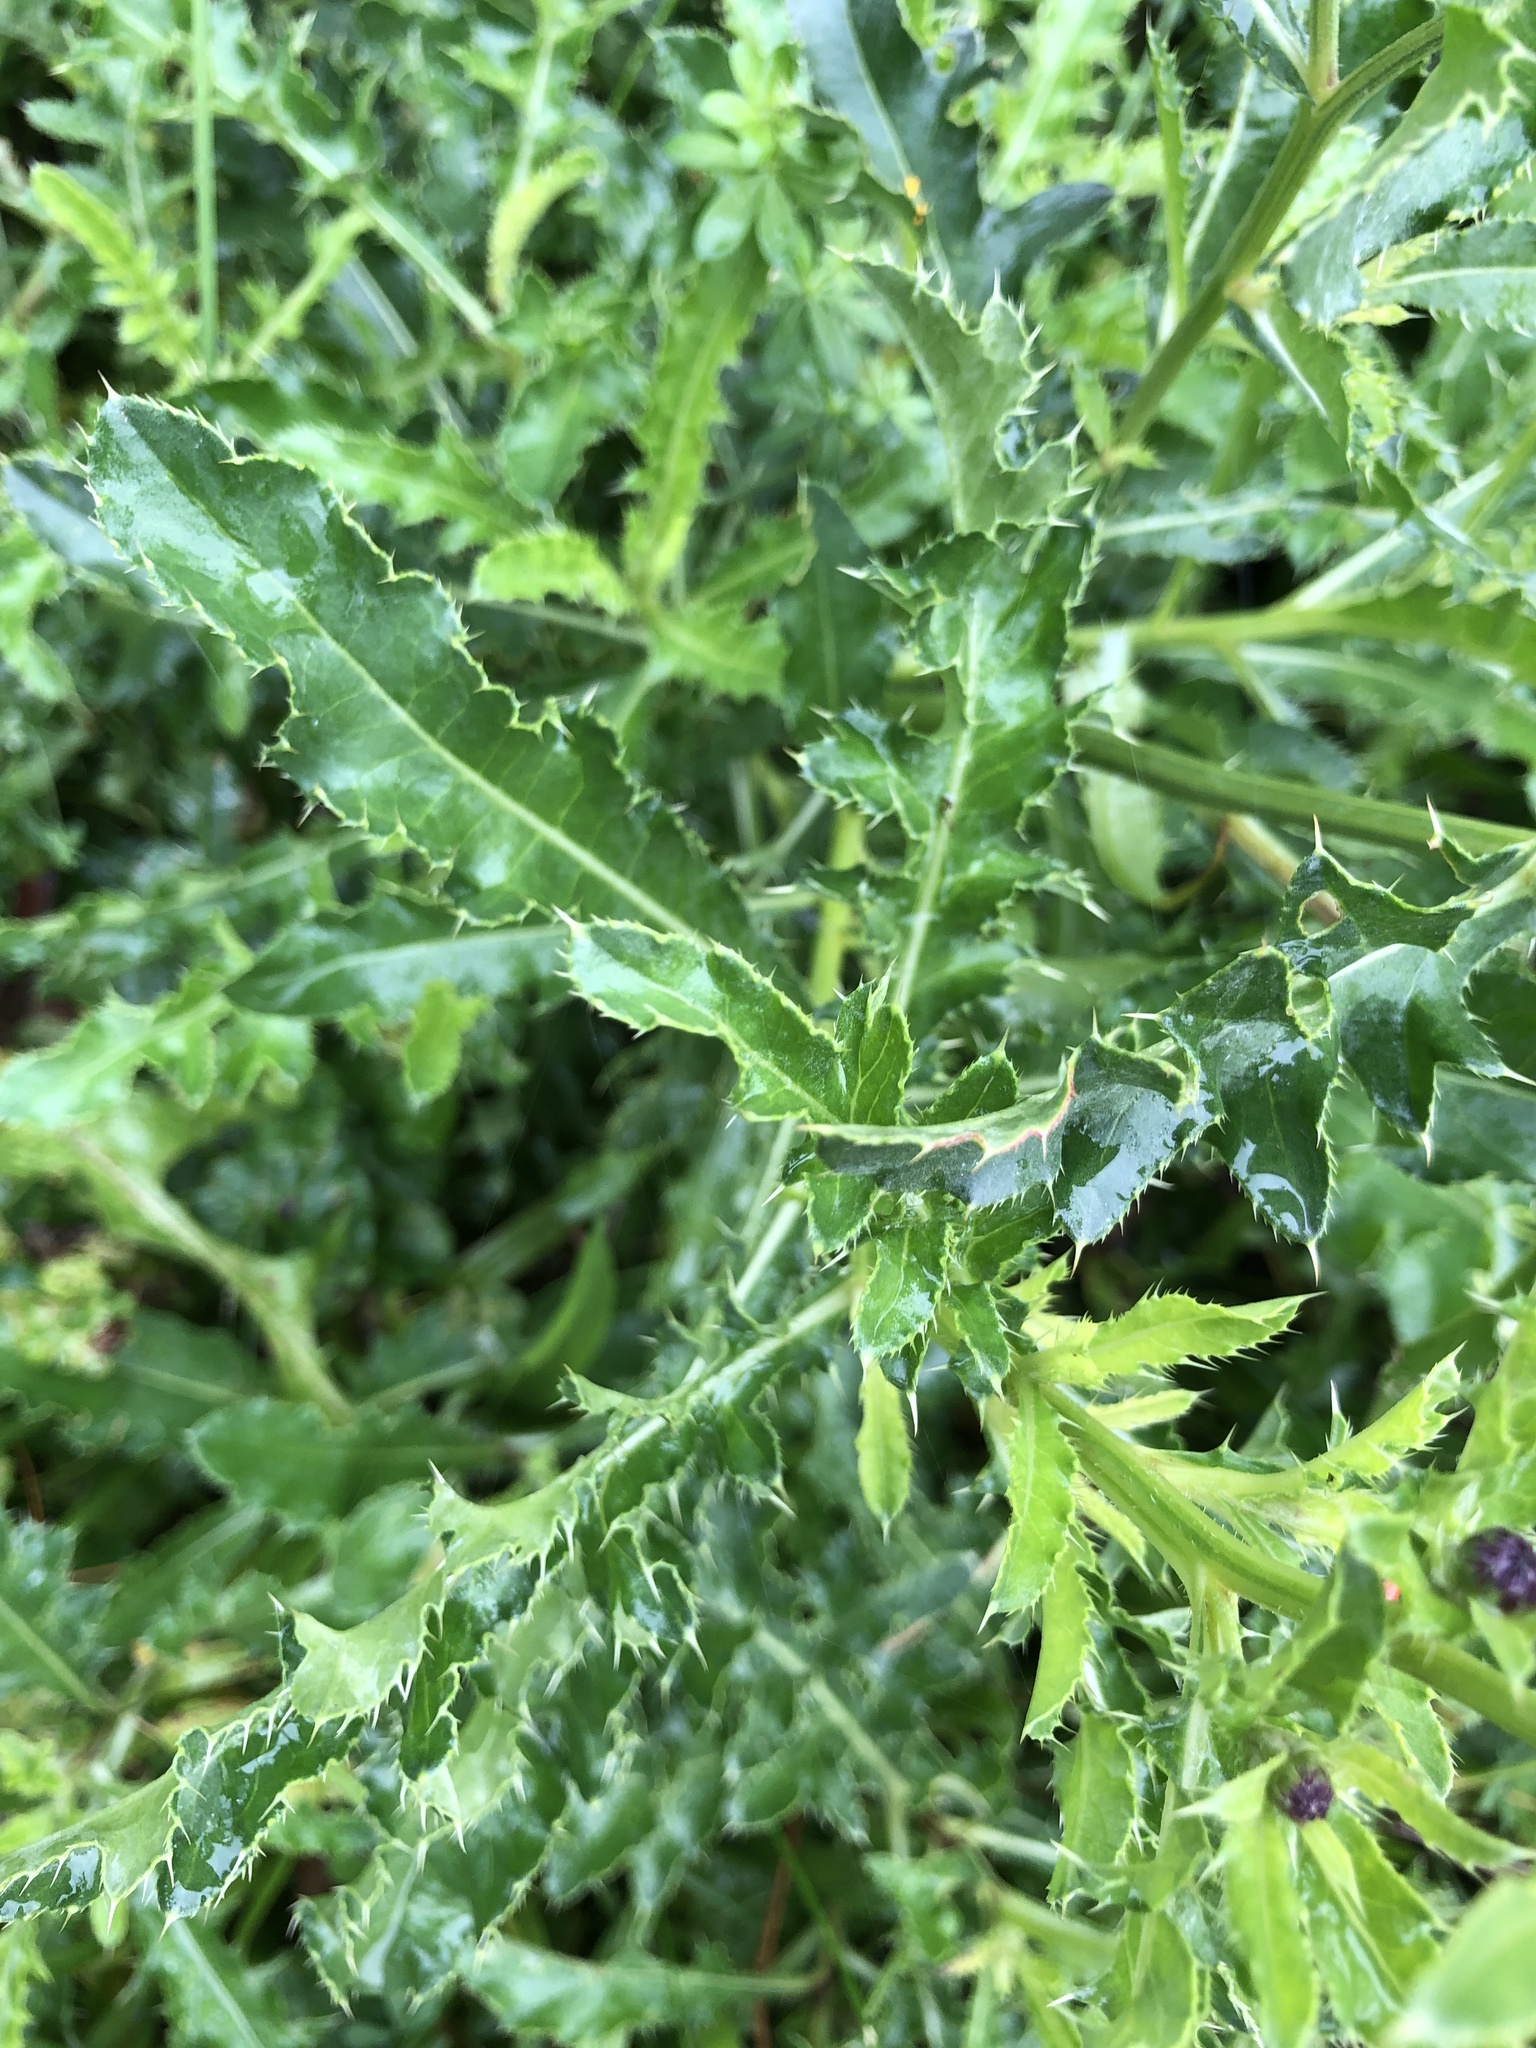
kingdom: Plantae
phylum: Tracheophyta
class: Magnoliopsida
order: Asterales
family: Asteraceae
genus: Cirsium
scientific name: Cirsium arvense
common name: Creeping thistle
